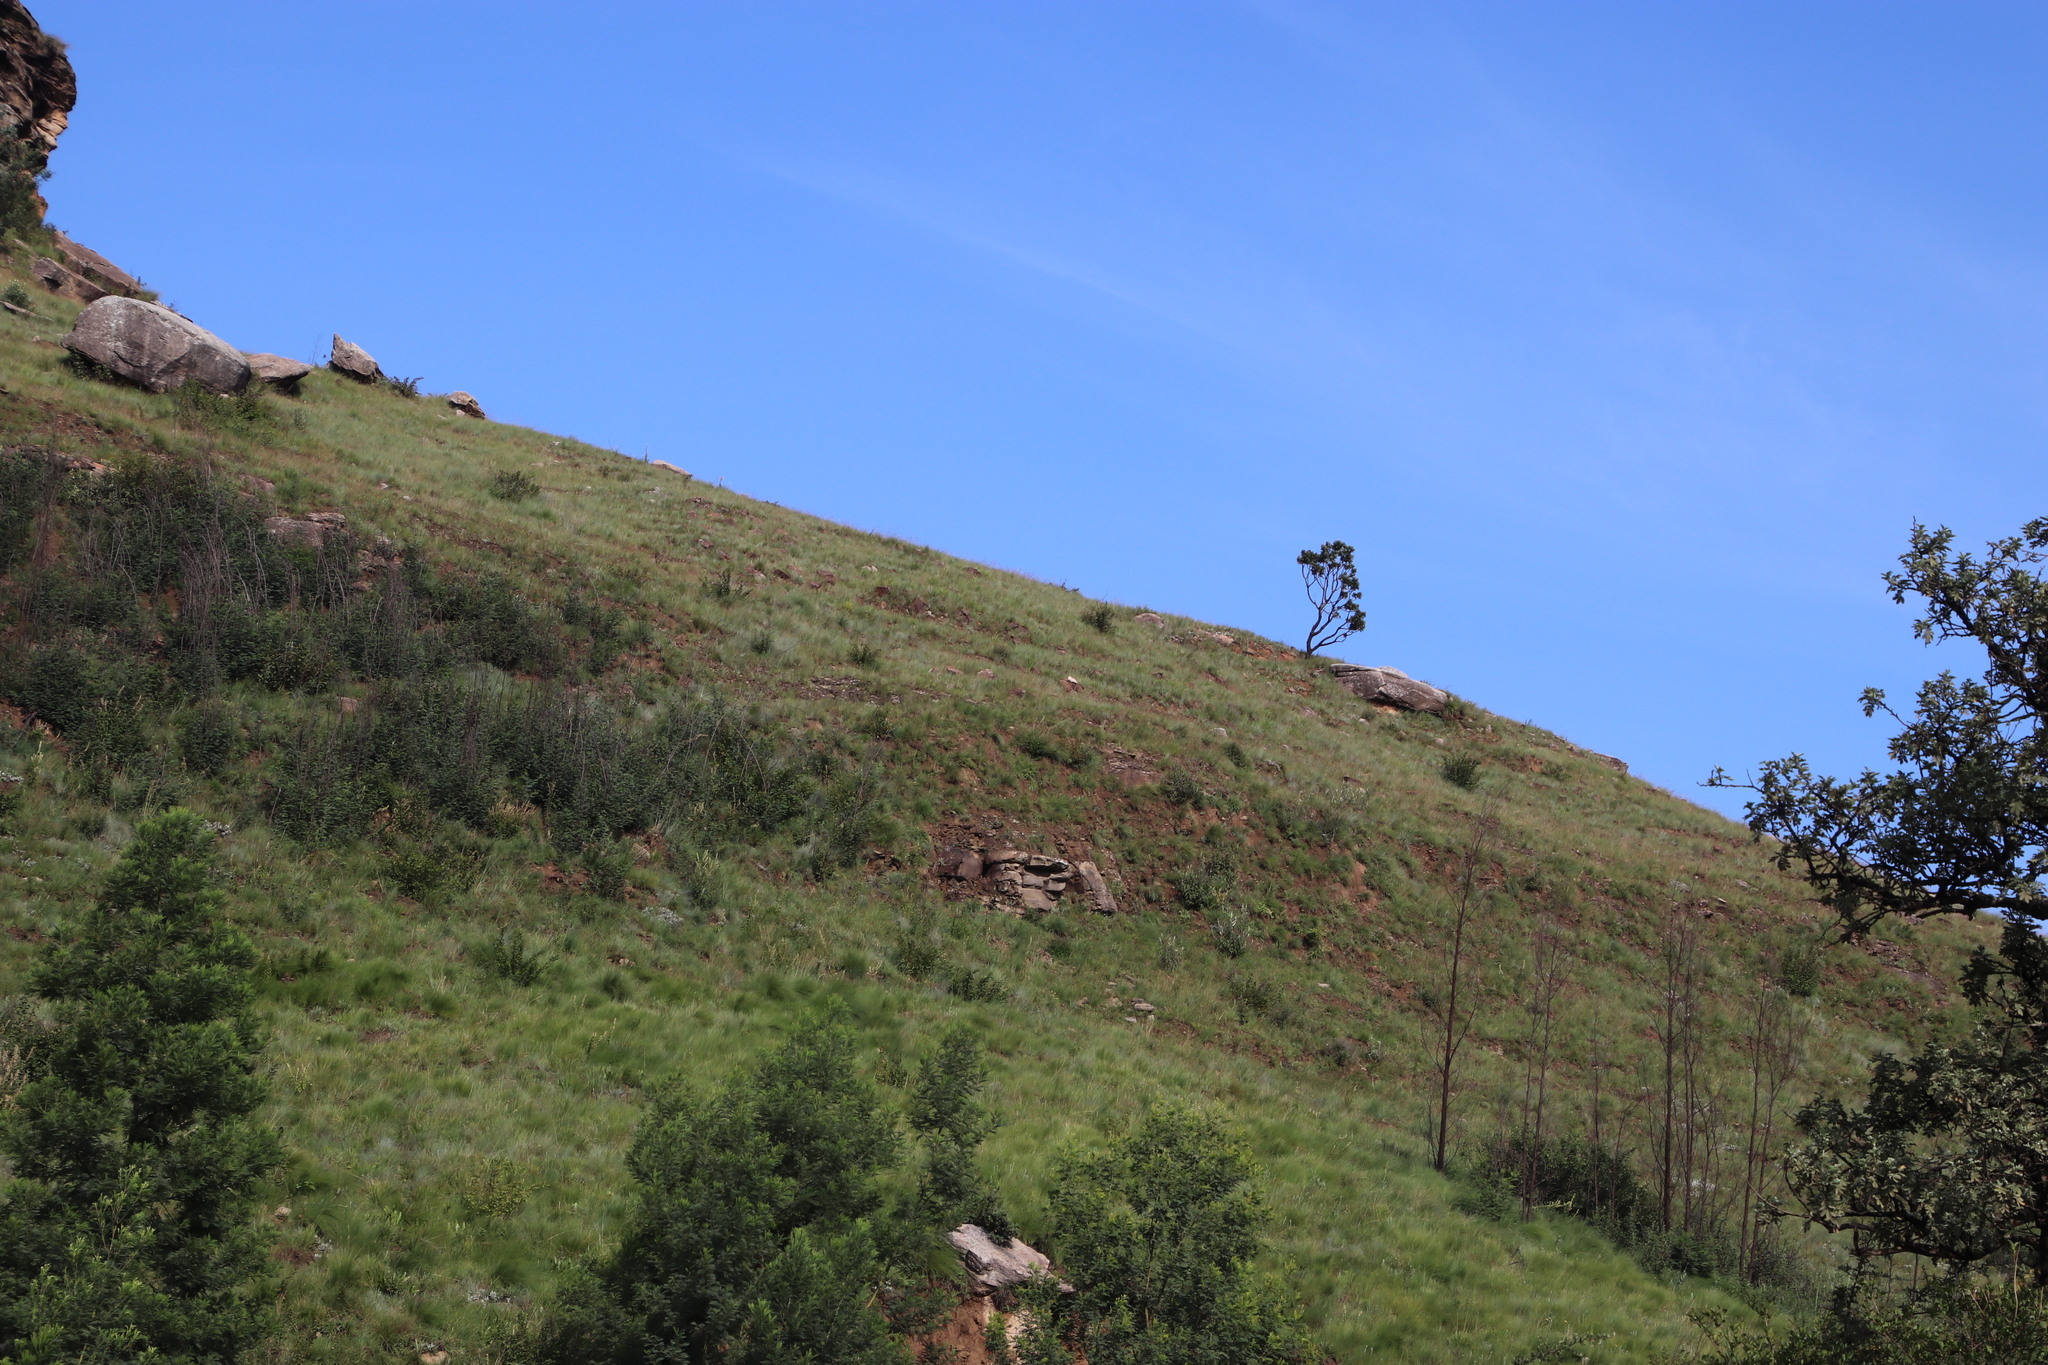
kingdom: Plantae
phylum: Tracheophyta
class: Magnoliopsida
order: Proteales
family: Proteaceae
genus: Protea
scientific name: Protea roupelliae
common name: Silver sugarbush
